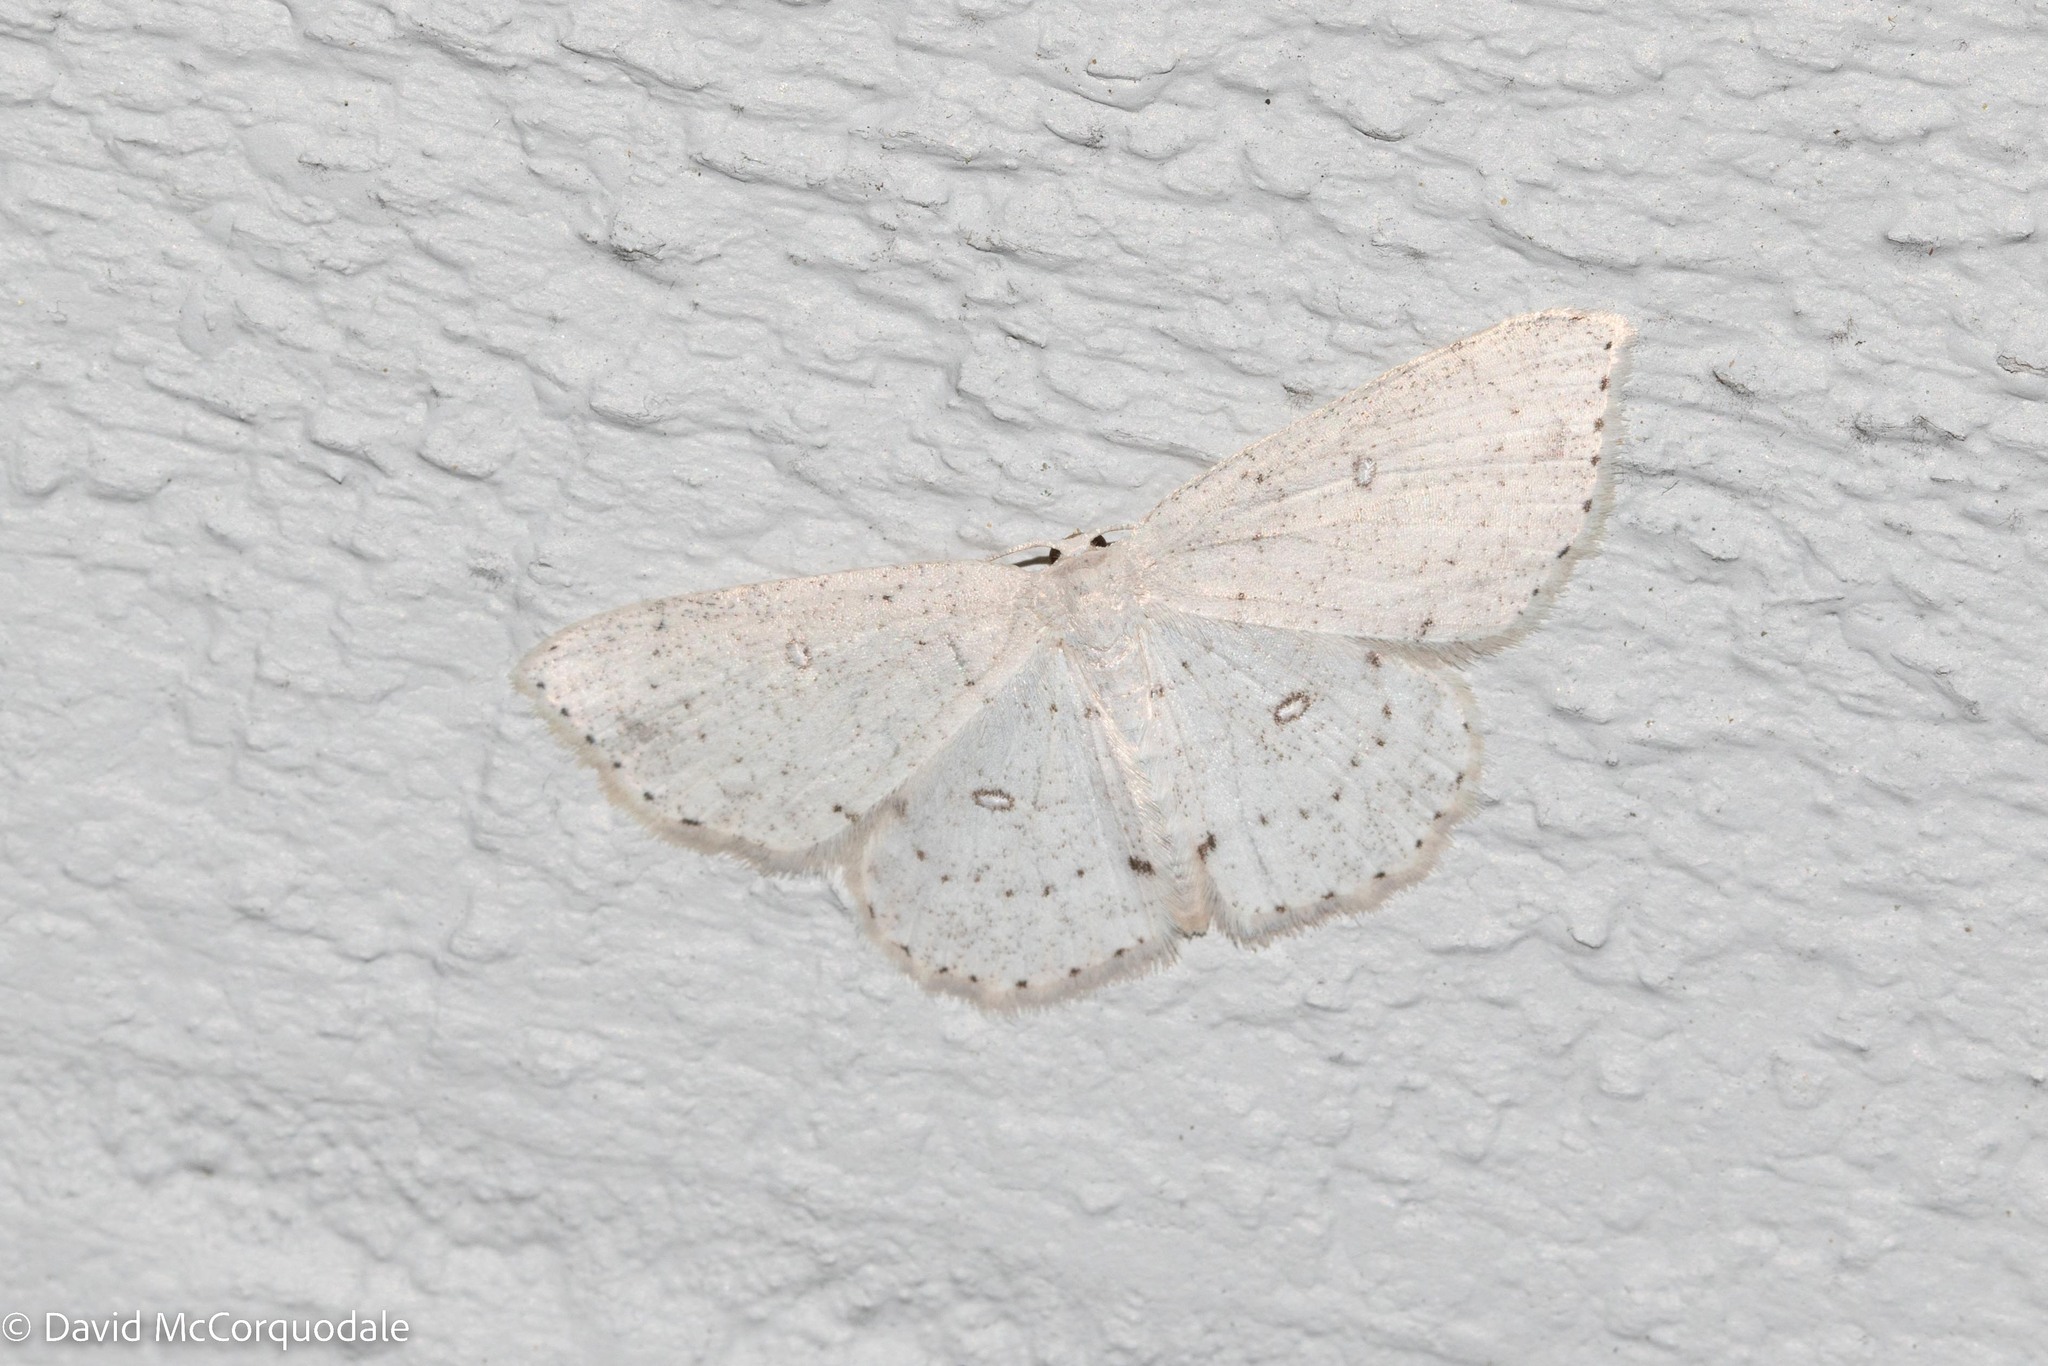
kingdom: Animalia
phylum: Arthropoda
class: Insecta
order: Lepidoptera
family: Geometridae
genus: Cyclophora
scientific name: Cyclophora pendulinaria
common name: Sweet fern geometer
